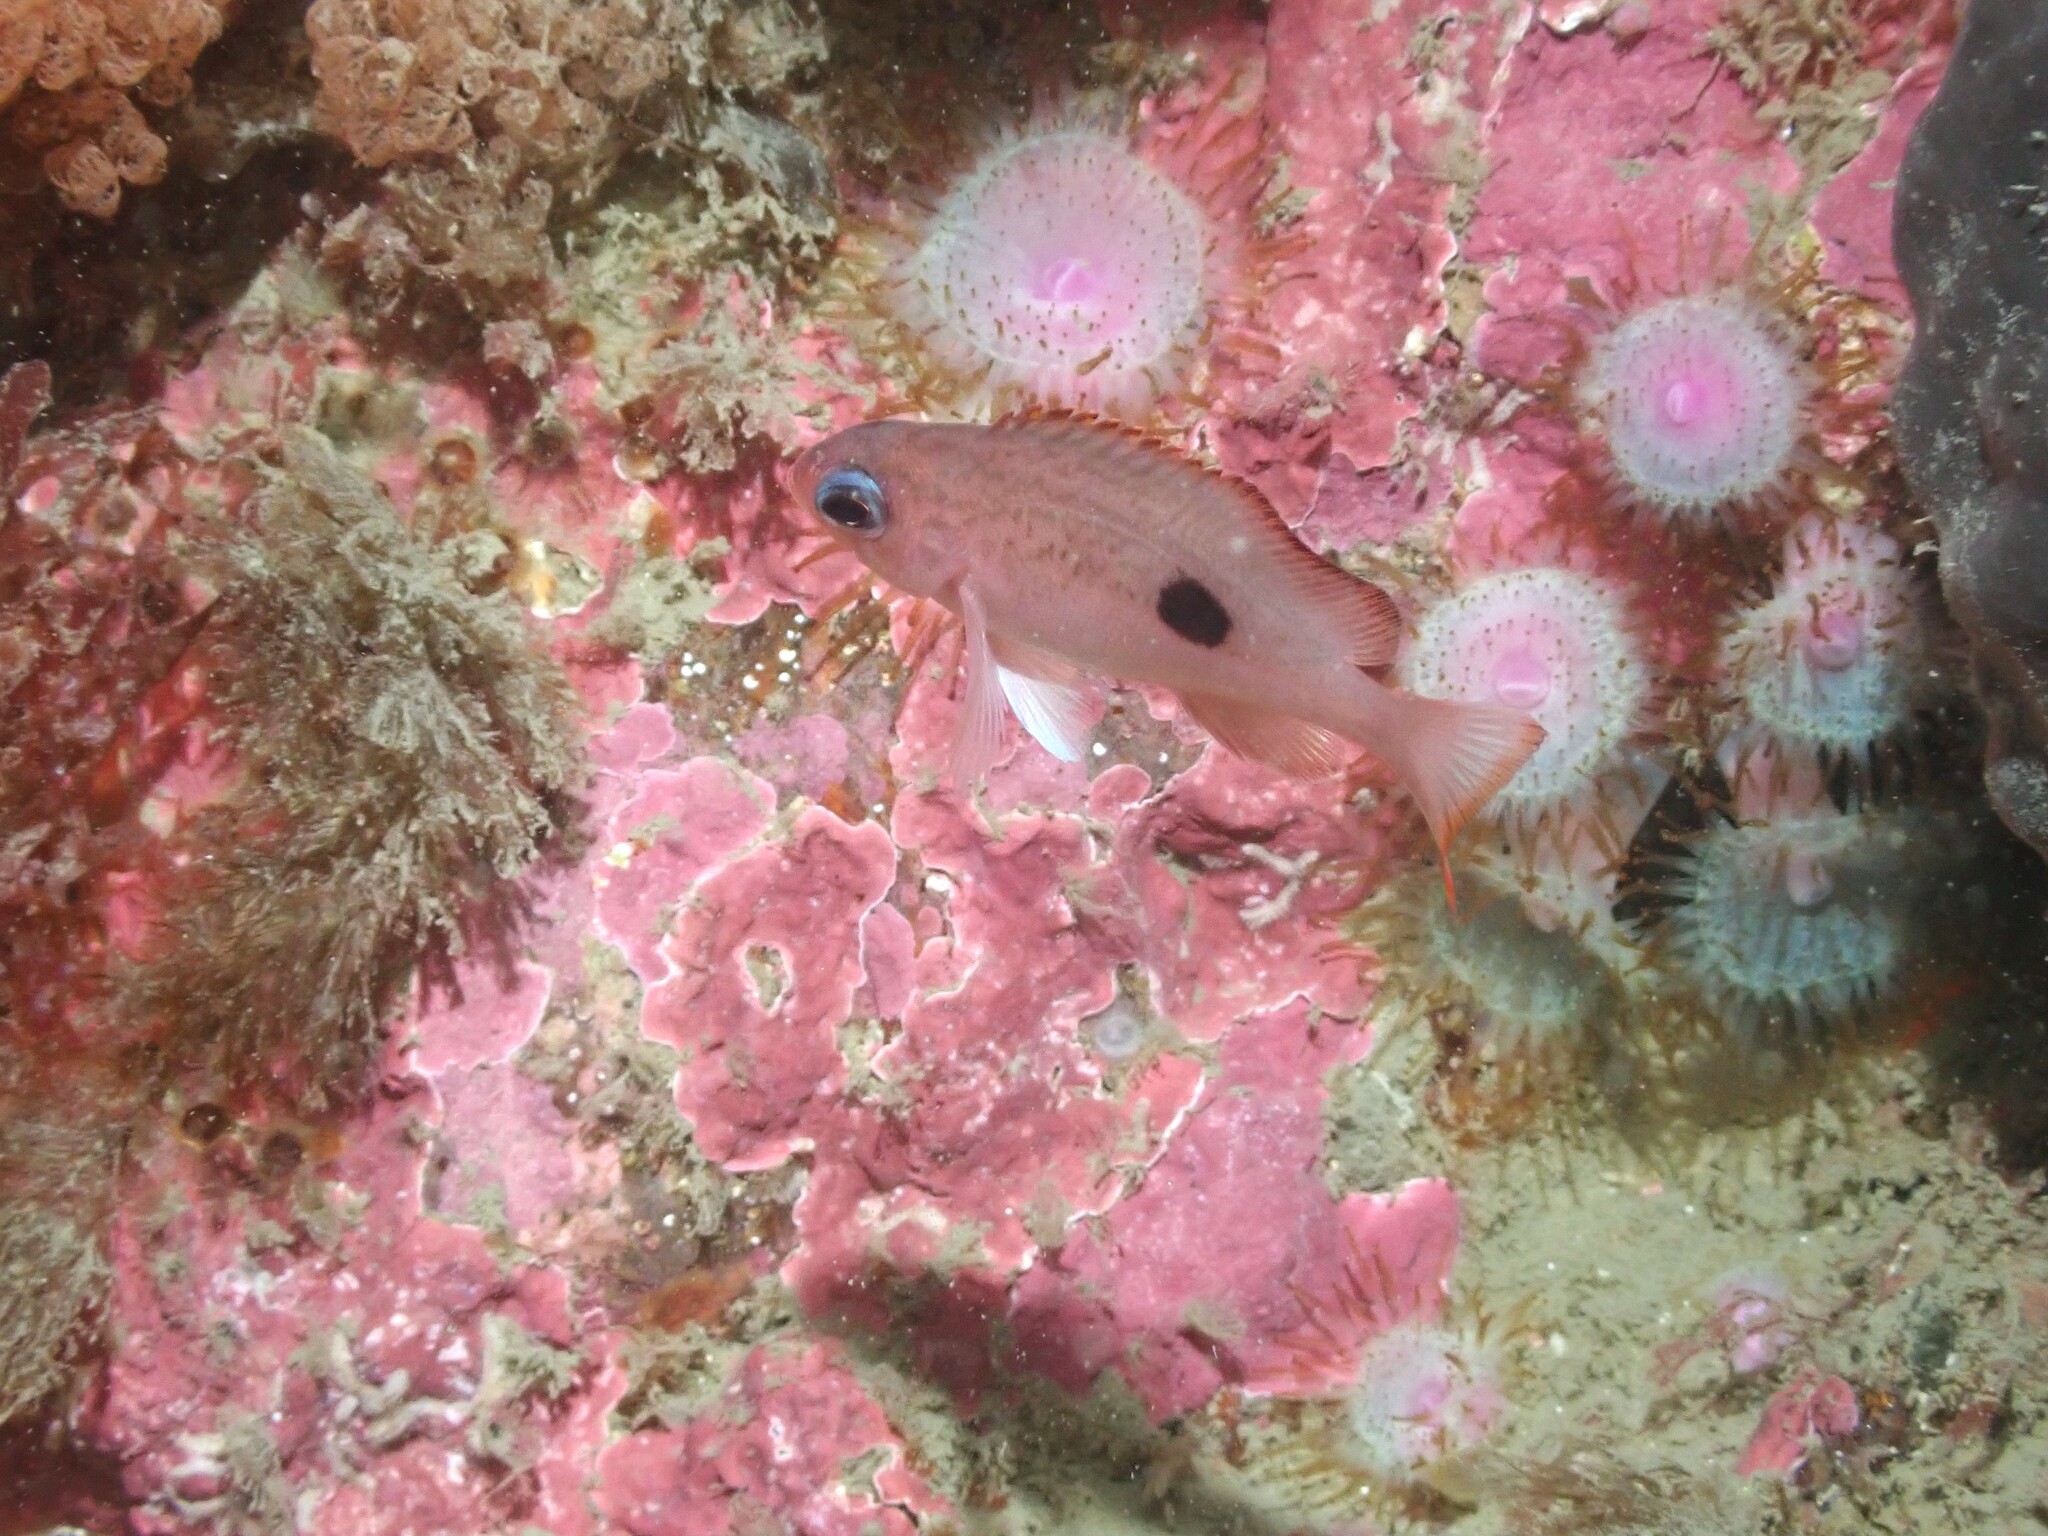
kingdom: Animalia
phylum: Chordata
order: Perciformes
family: Serranidae
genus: Caesioperca
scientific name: Caesioperca lepidoptera
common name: Butterfly perch
